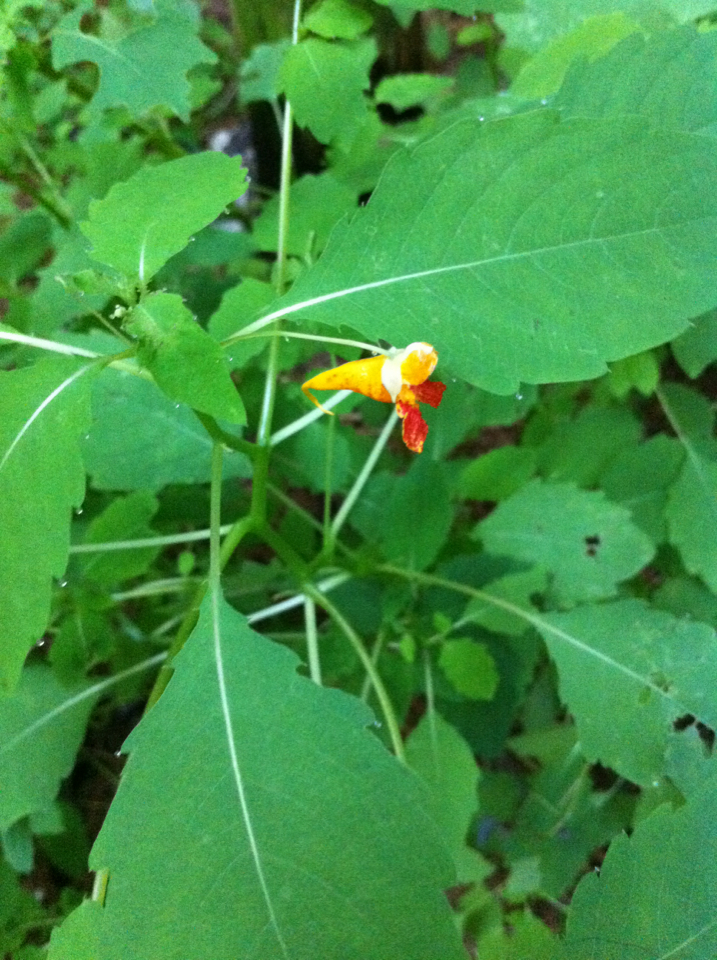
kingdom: Plantae
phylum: Tracheophyta
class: Magnoliopsida
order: Ericales
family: Balsaminaceae
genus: Impatiens
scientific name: Impatiens capensis
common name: Orange balsam
